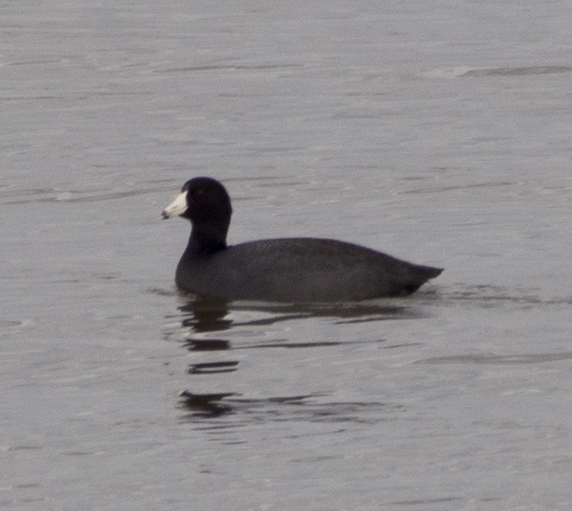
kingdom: Animalia
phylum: Chordata
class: Aves
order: Gruiformes
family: Rallidae
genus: Fulica
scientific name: Fulica americana
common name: American coot
